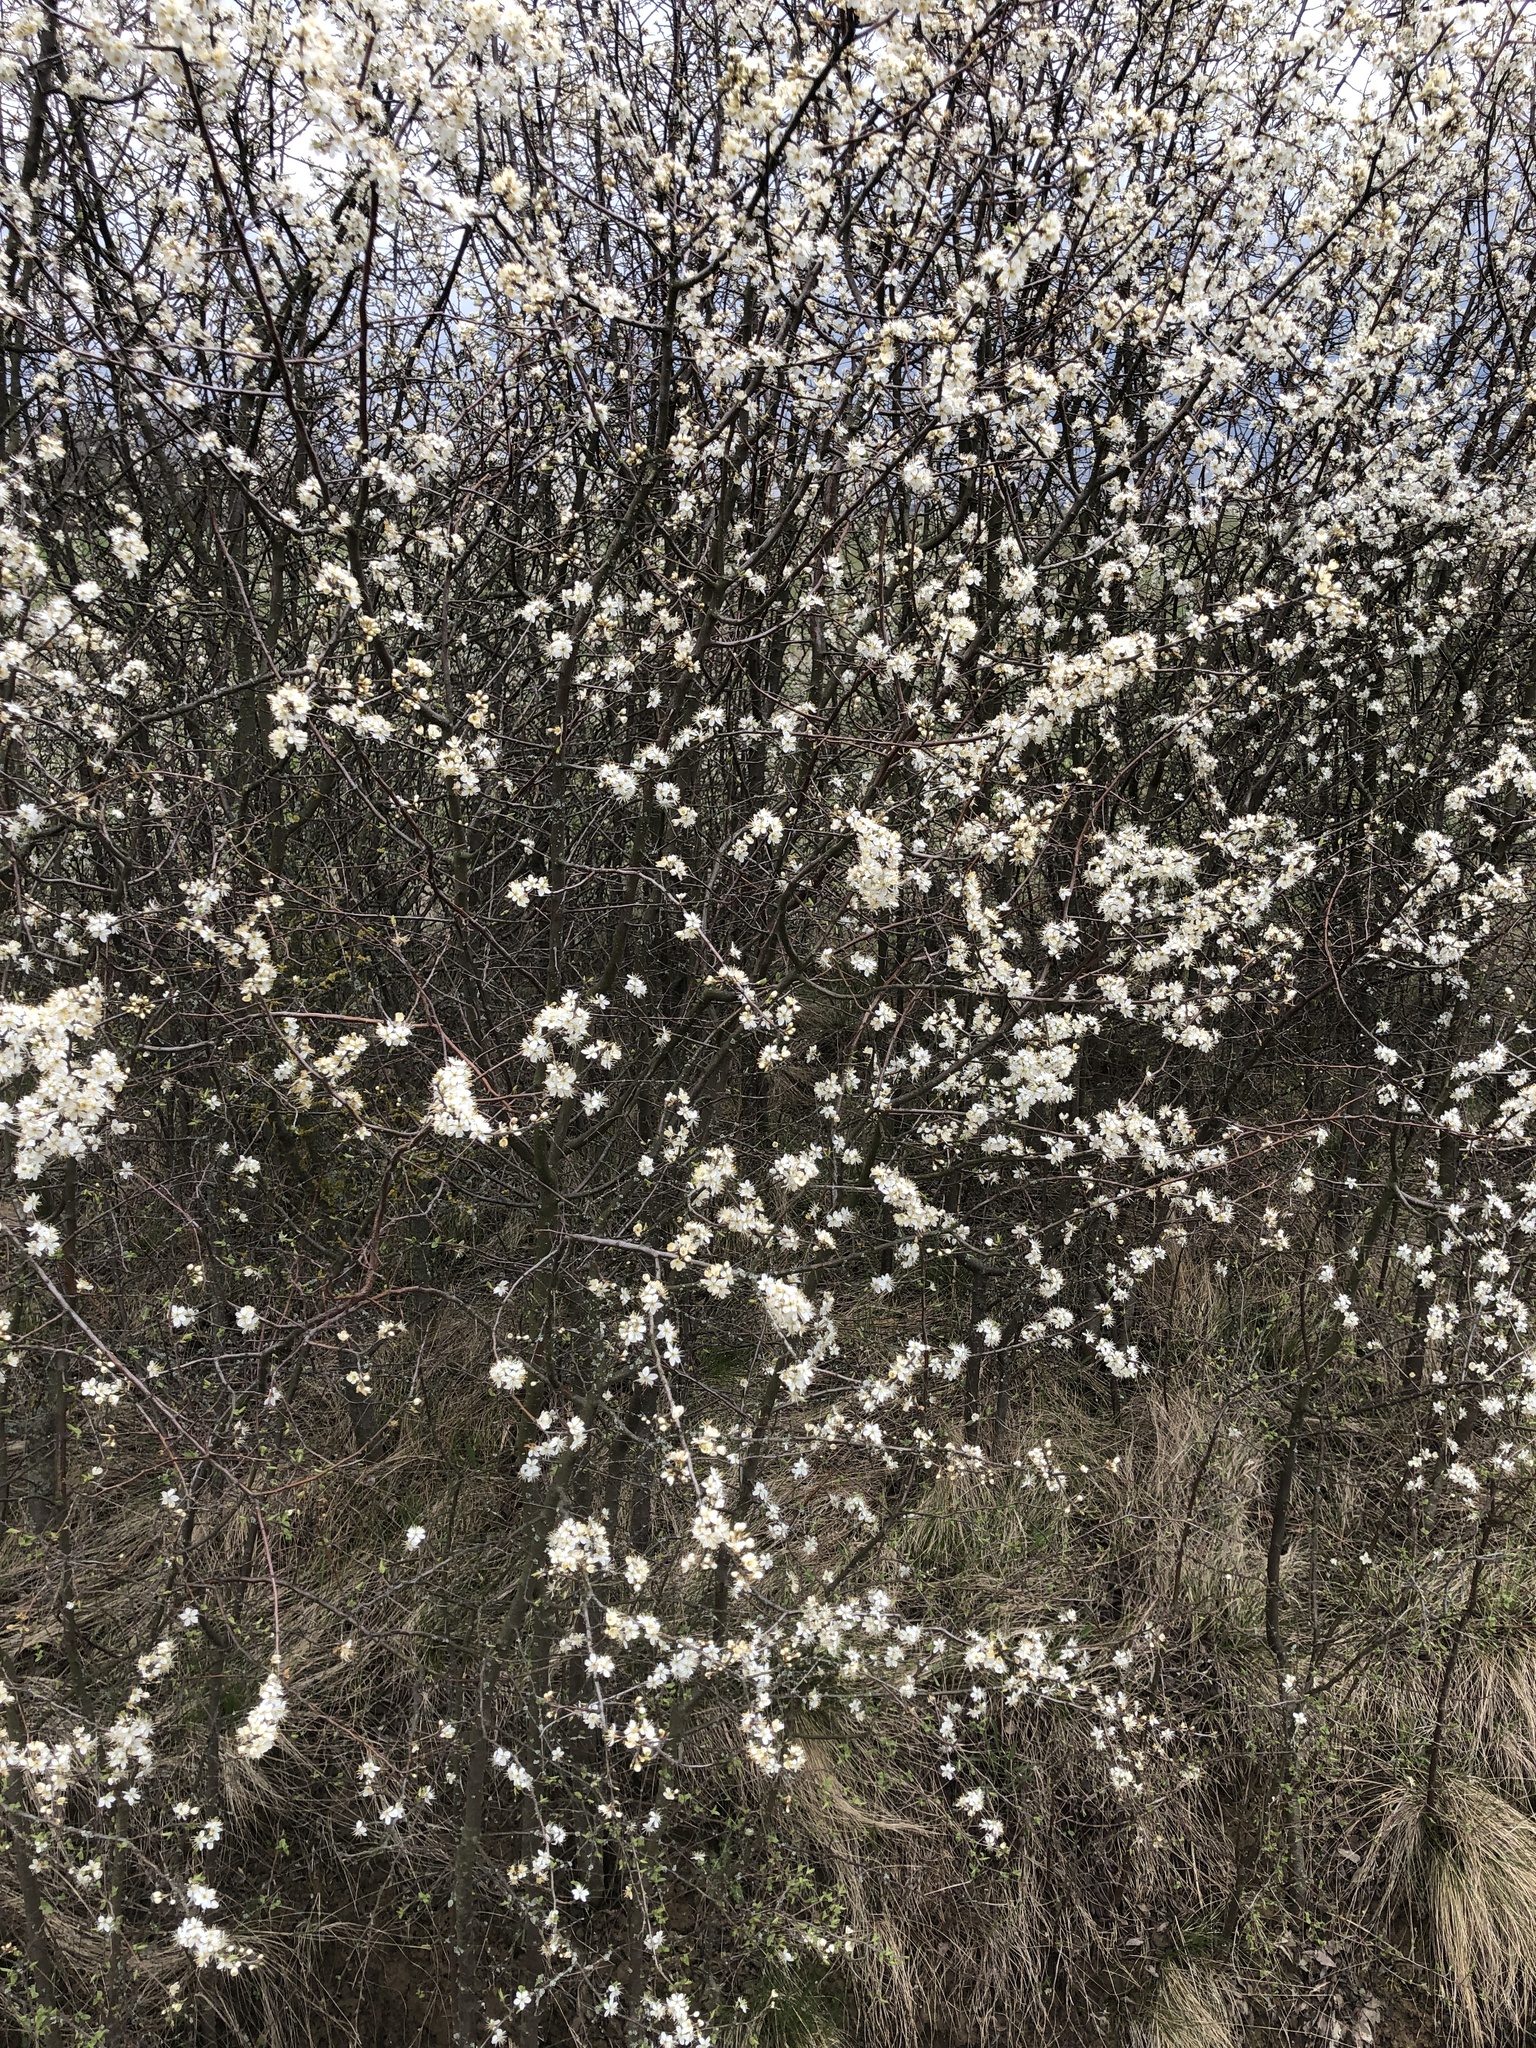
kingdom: Plantae
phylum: Tracheophyta
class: Magnoliopsida
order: Rosales
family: Rosaceae
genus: Prunus
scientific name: Prunus spinosa
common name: Blackthorn
